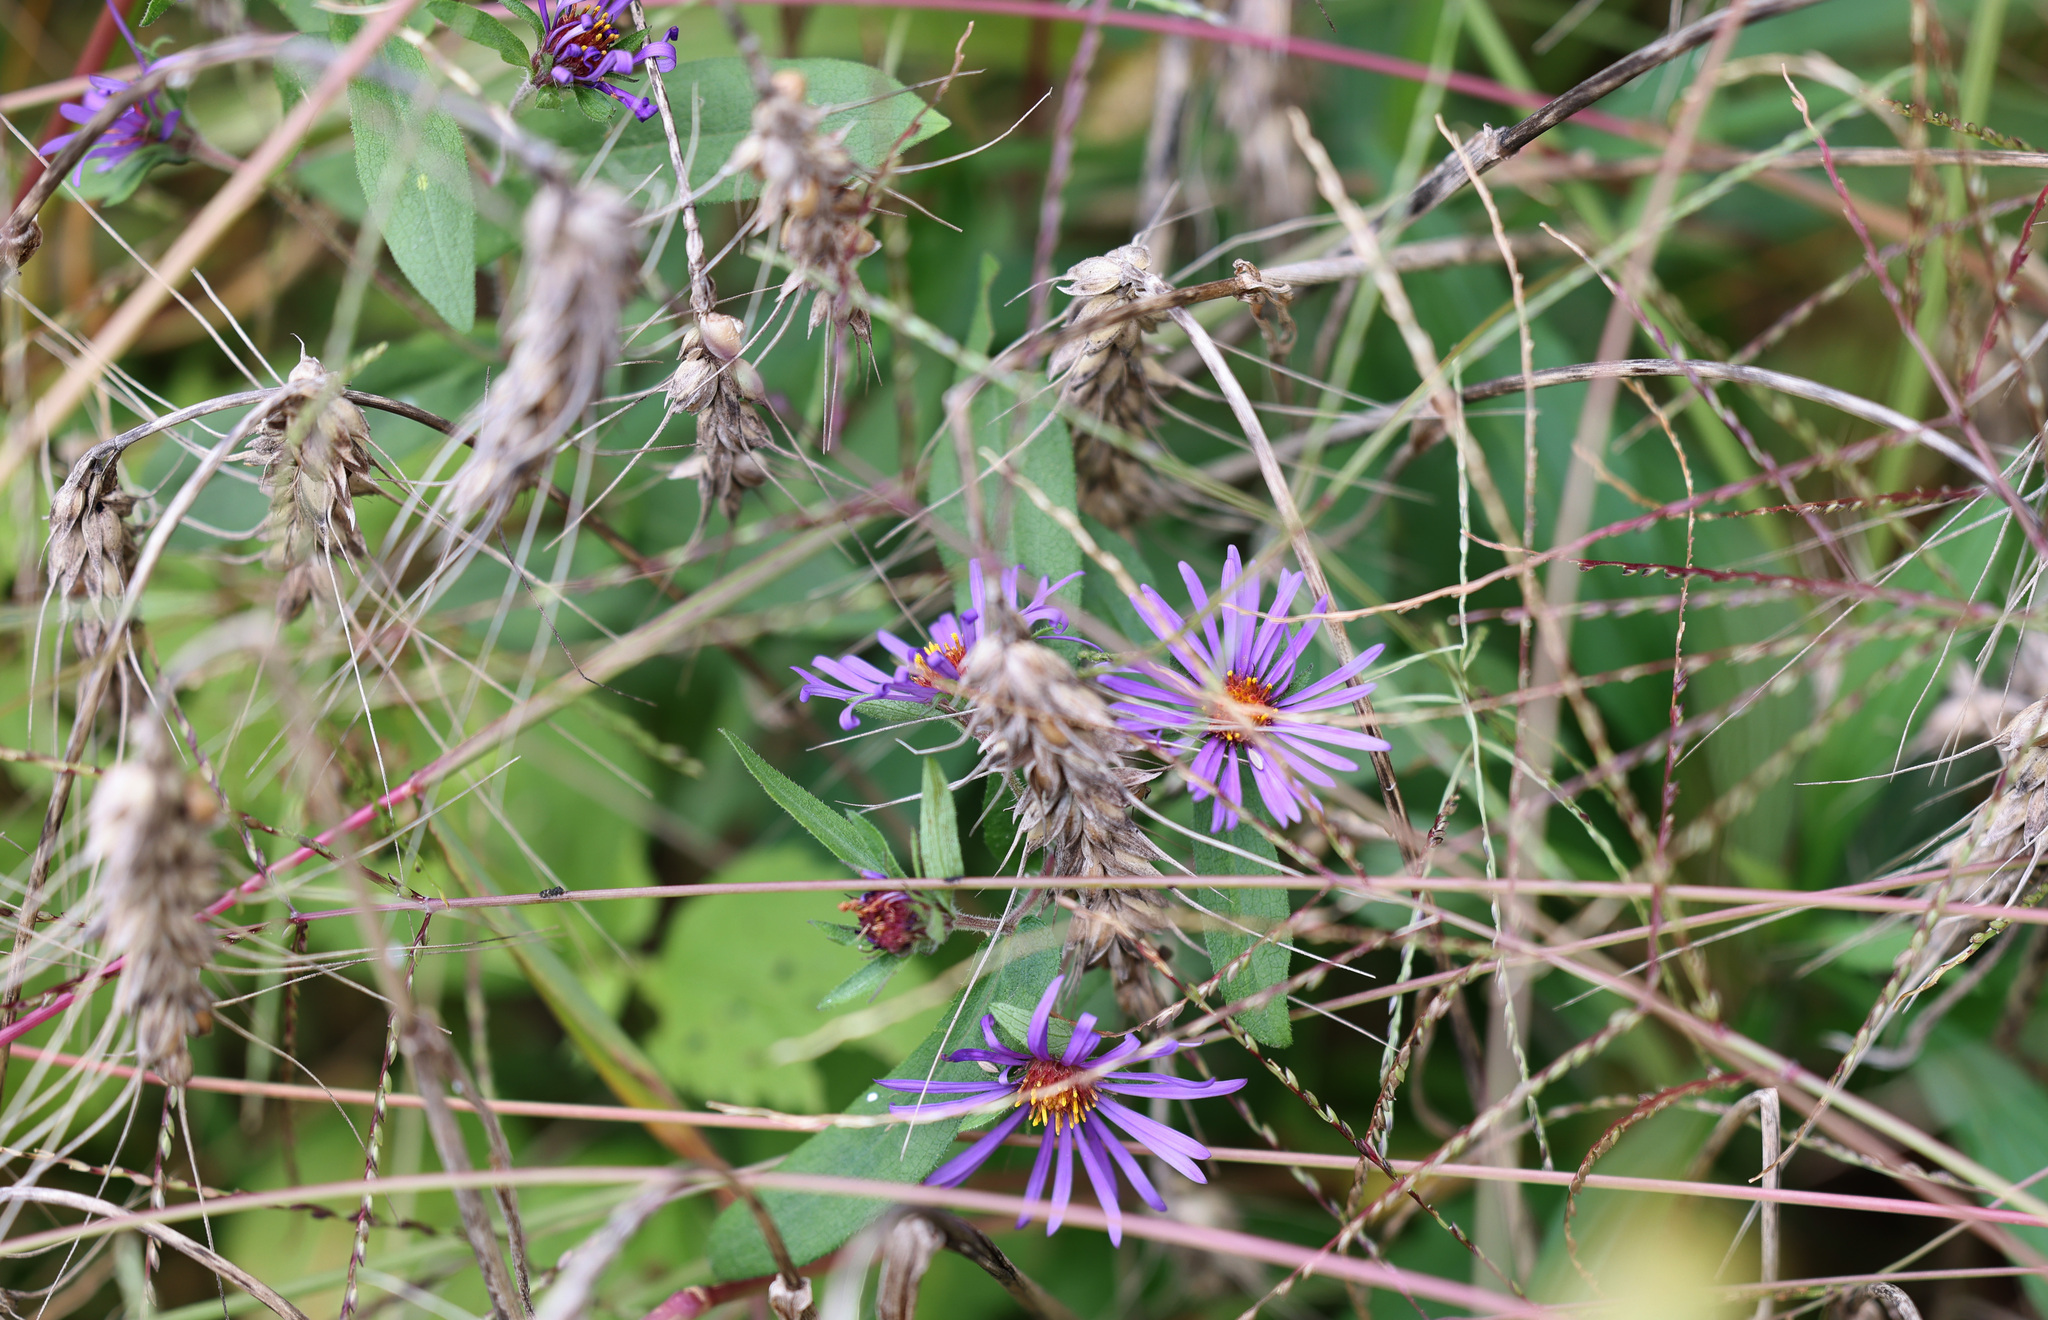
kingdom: Plantae
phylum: Tracheophyta
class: Magnoliopsida
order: Asterales
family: Asteraceae
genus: Symphyotrichum
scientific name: Symphyotrichum novae-angliae
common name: Michaelmas daisy
